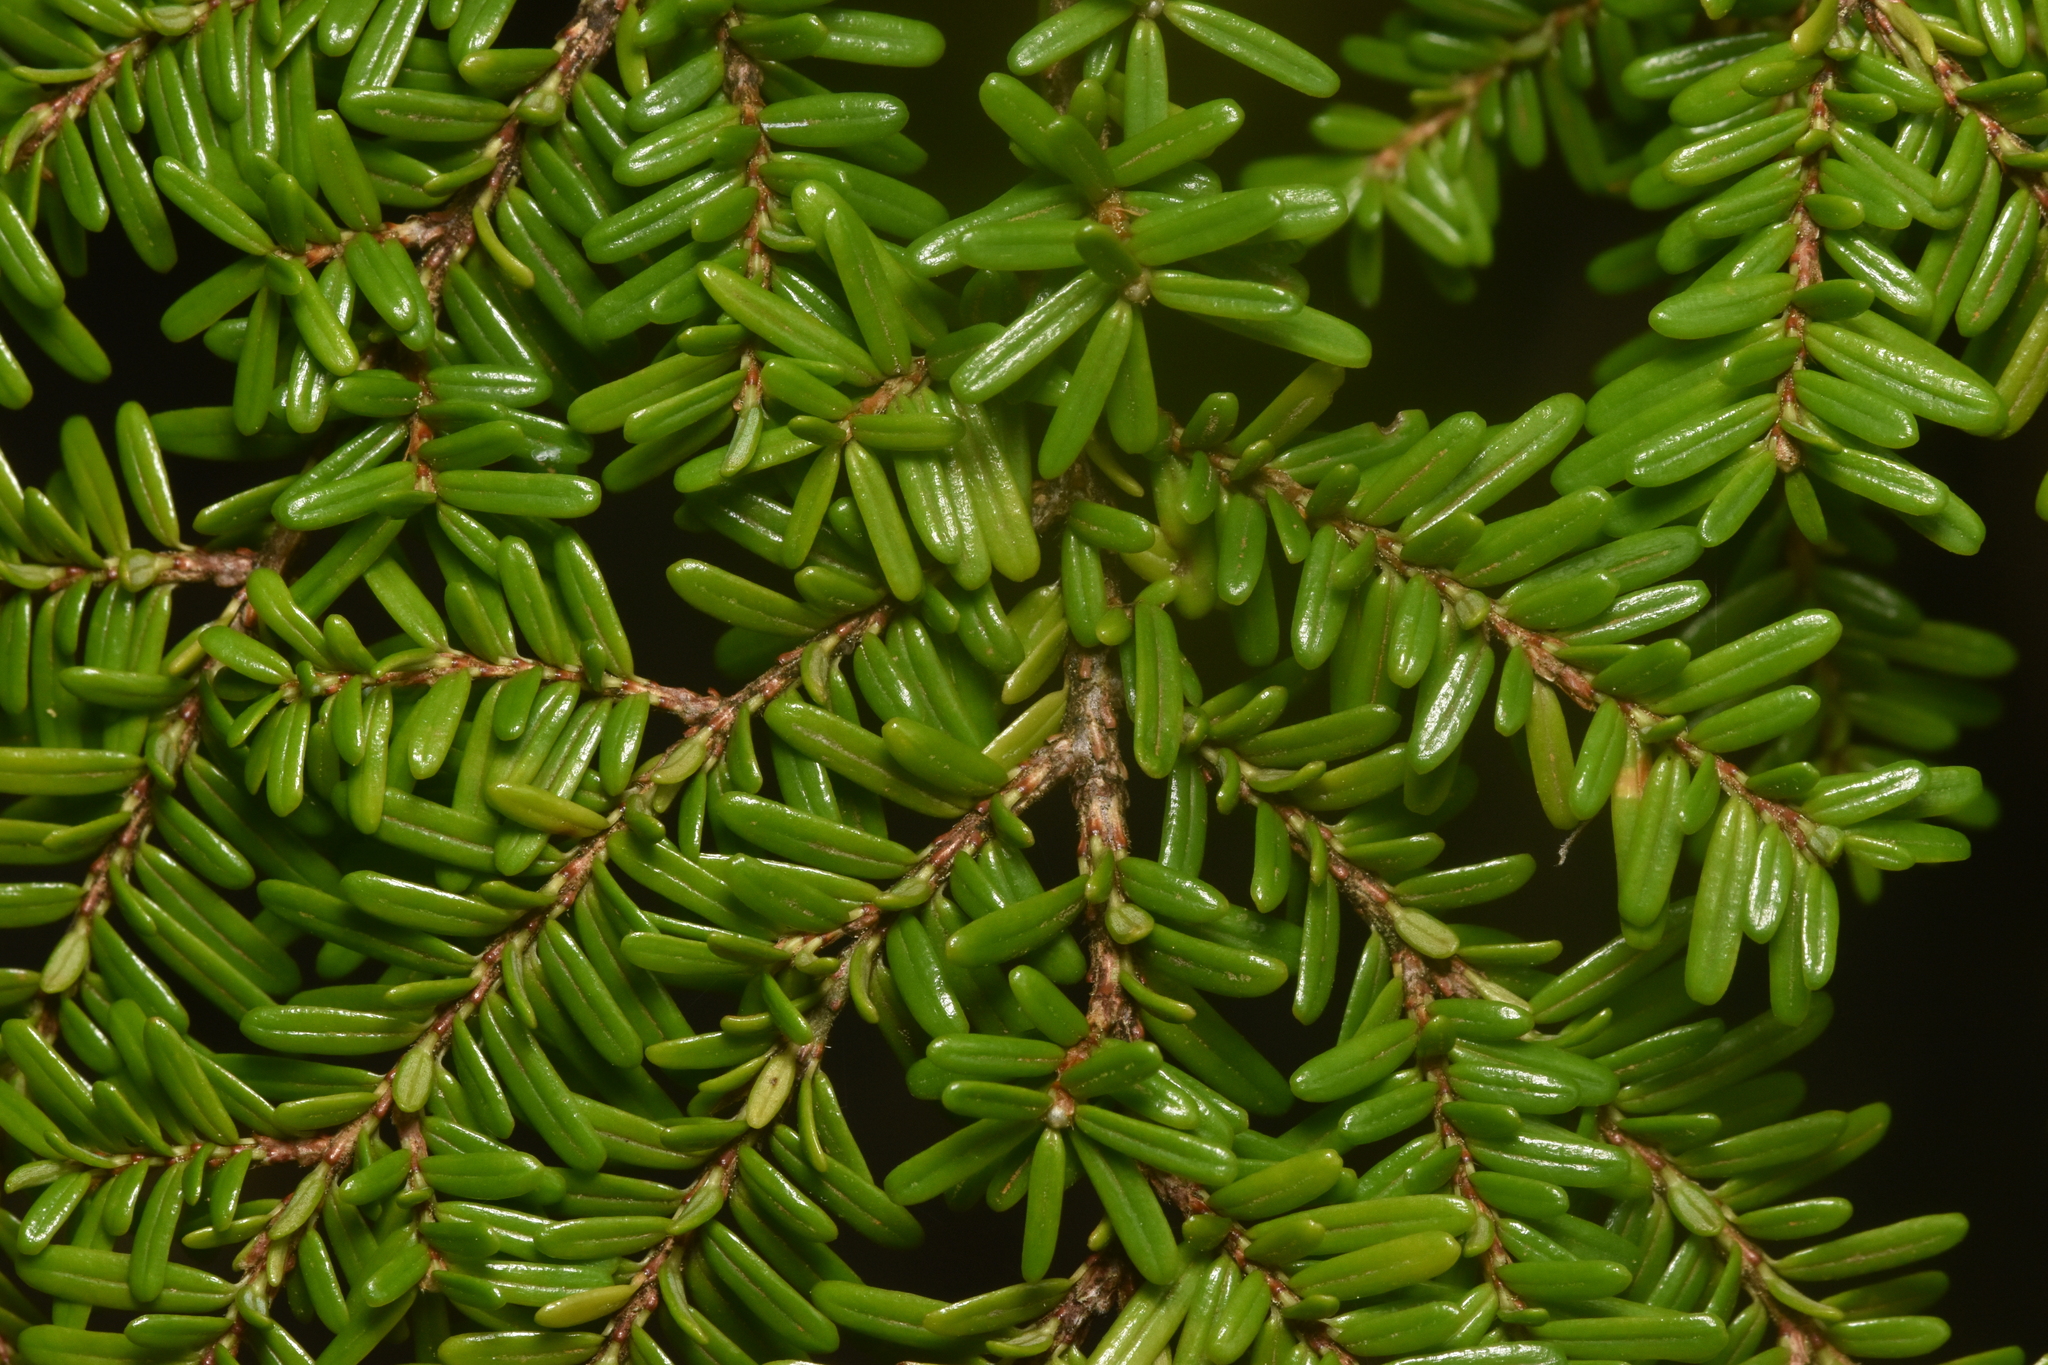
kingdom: Plantae
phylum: Tracheophyta
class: Pinopsida
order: Pinales
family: Pinaceae
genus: Tsuga
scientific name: Tsuga heterophylla
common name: Western hemlock
